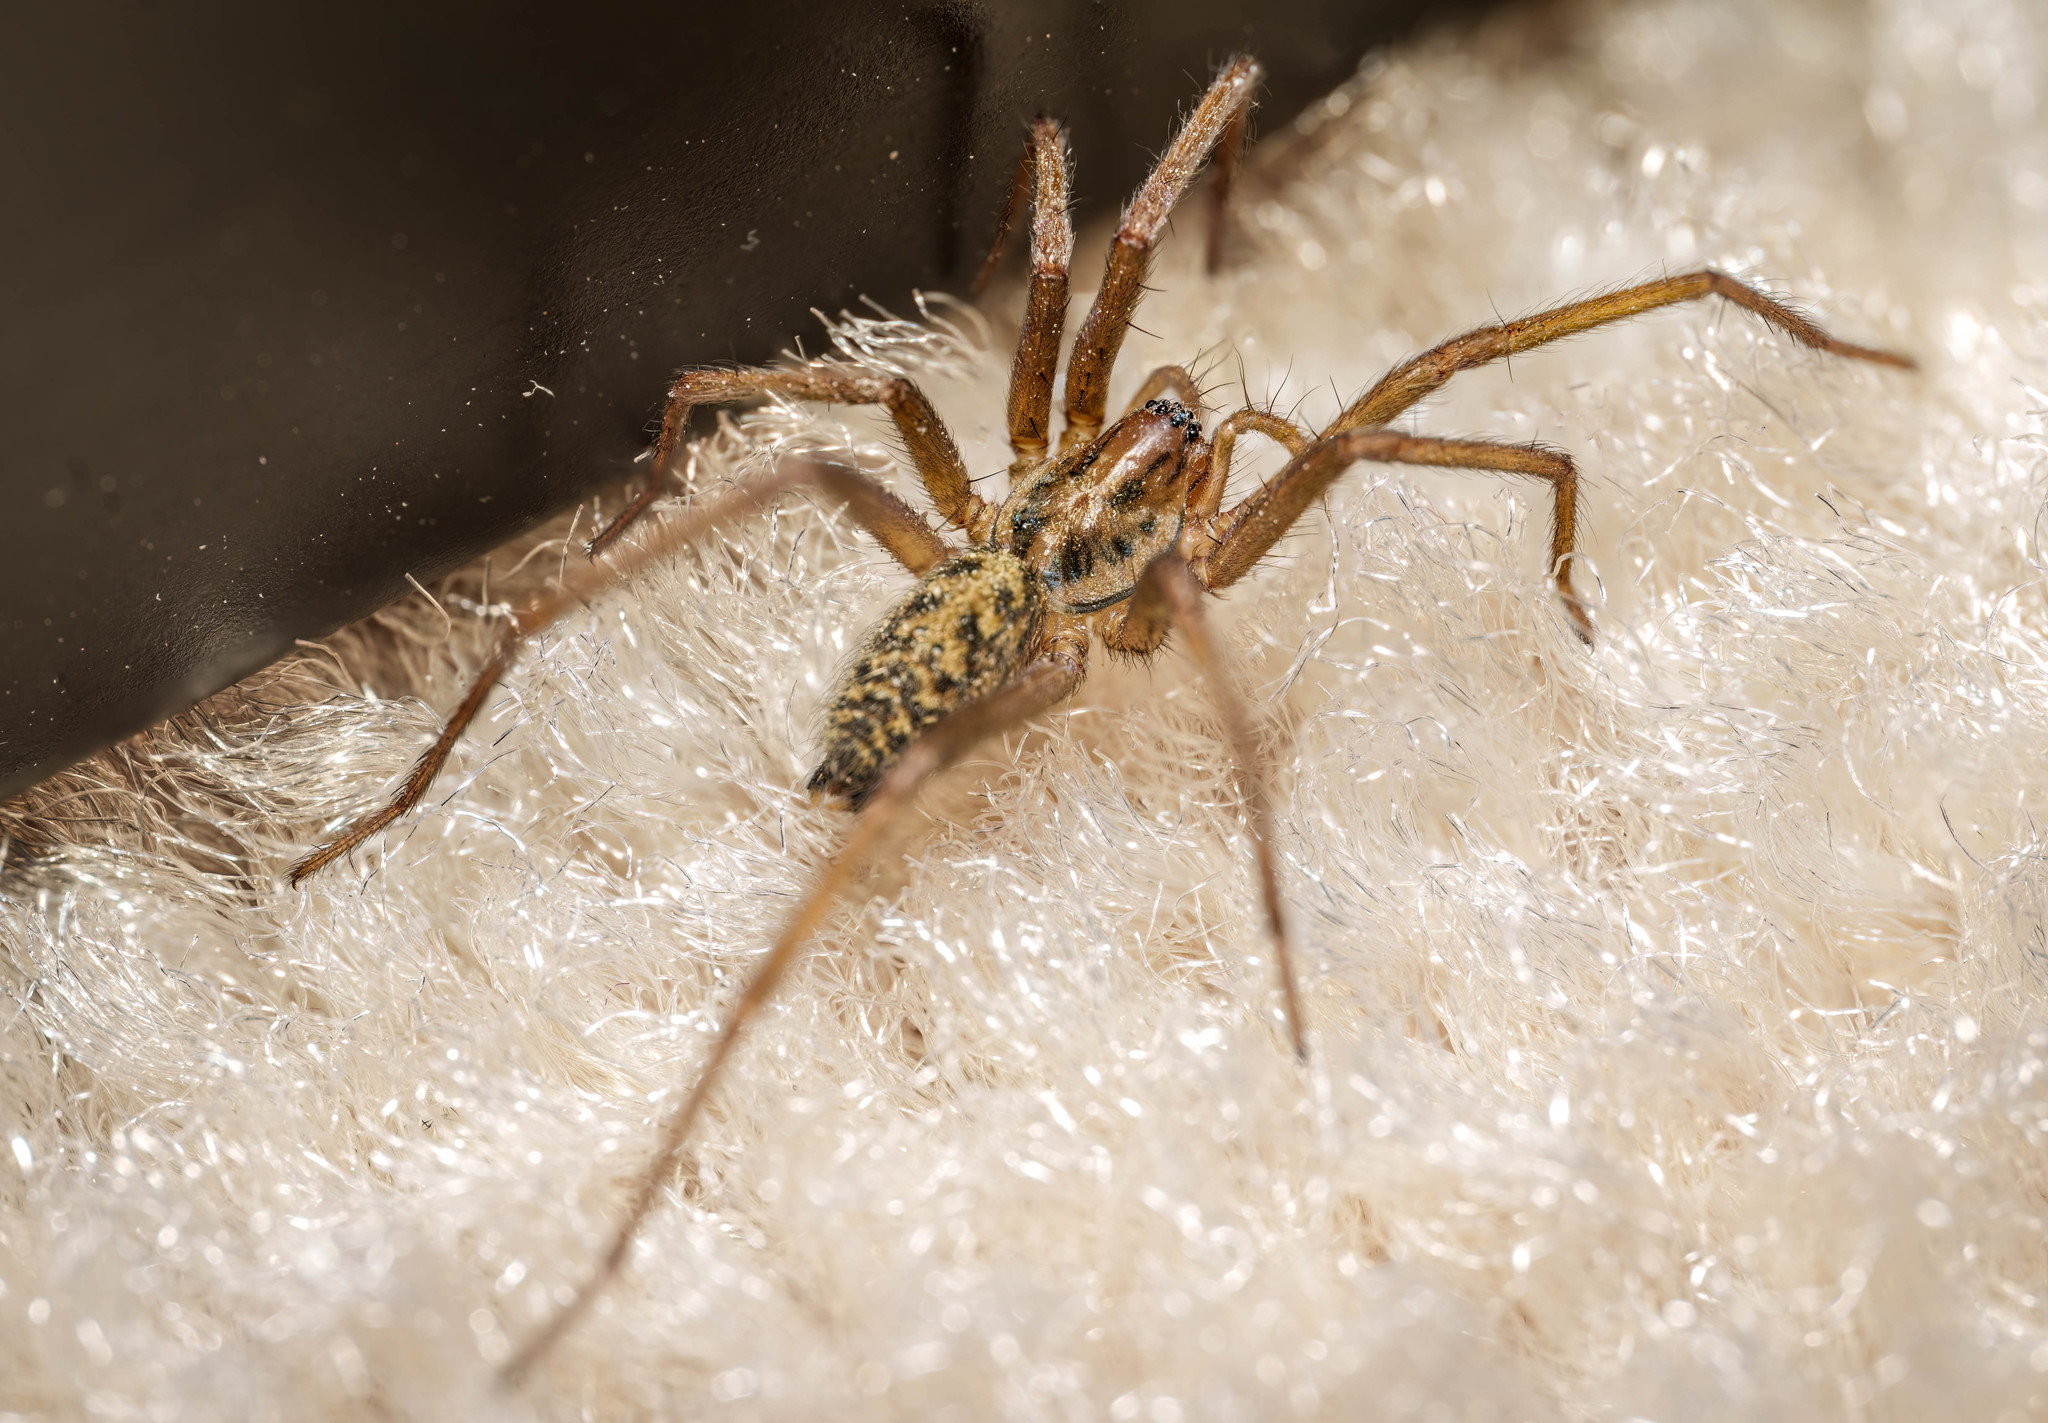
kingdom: Animalia
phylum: Arthropoda
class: Arachnida
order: Araneae
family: Agelenidae
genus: Eratigena
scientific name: Eratigena duellica
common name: Giant house spider
